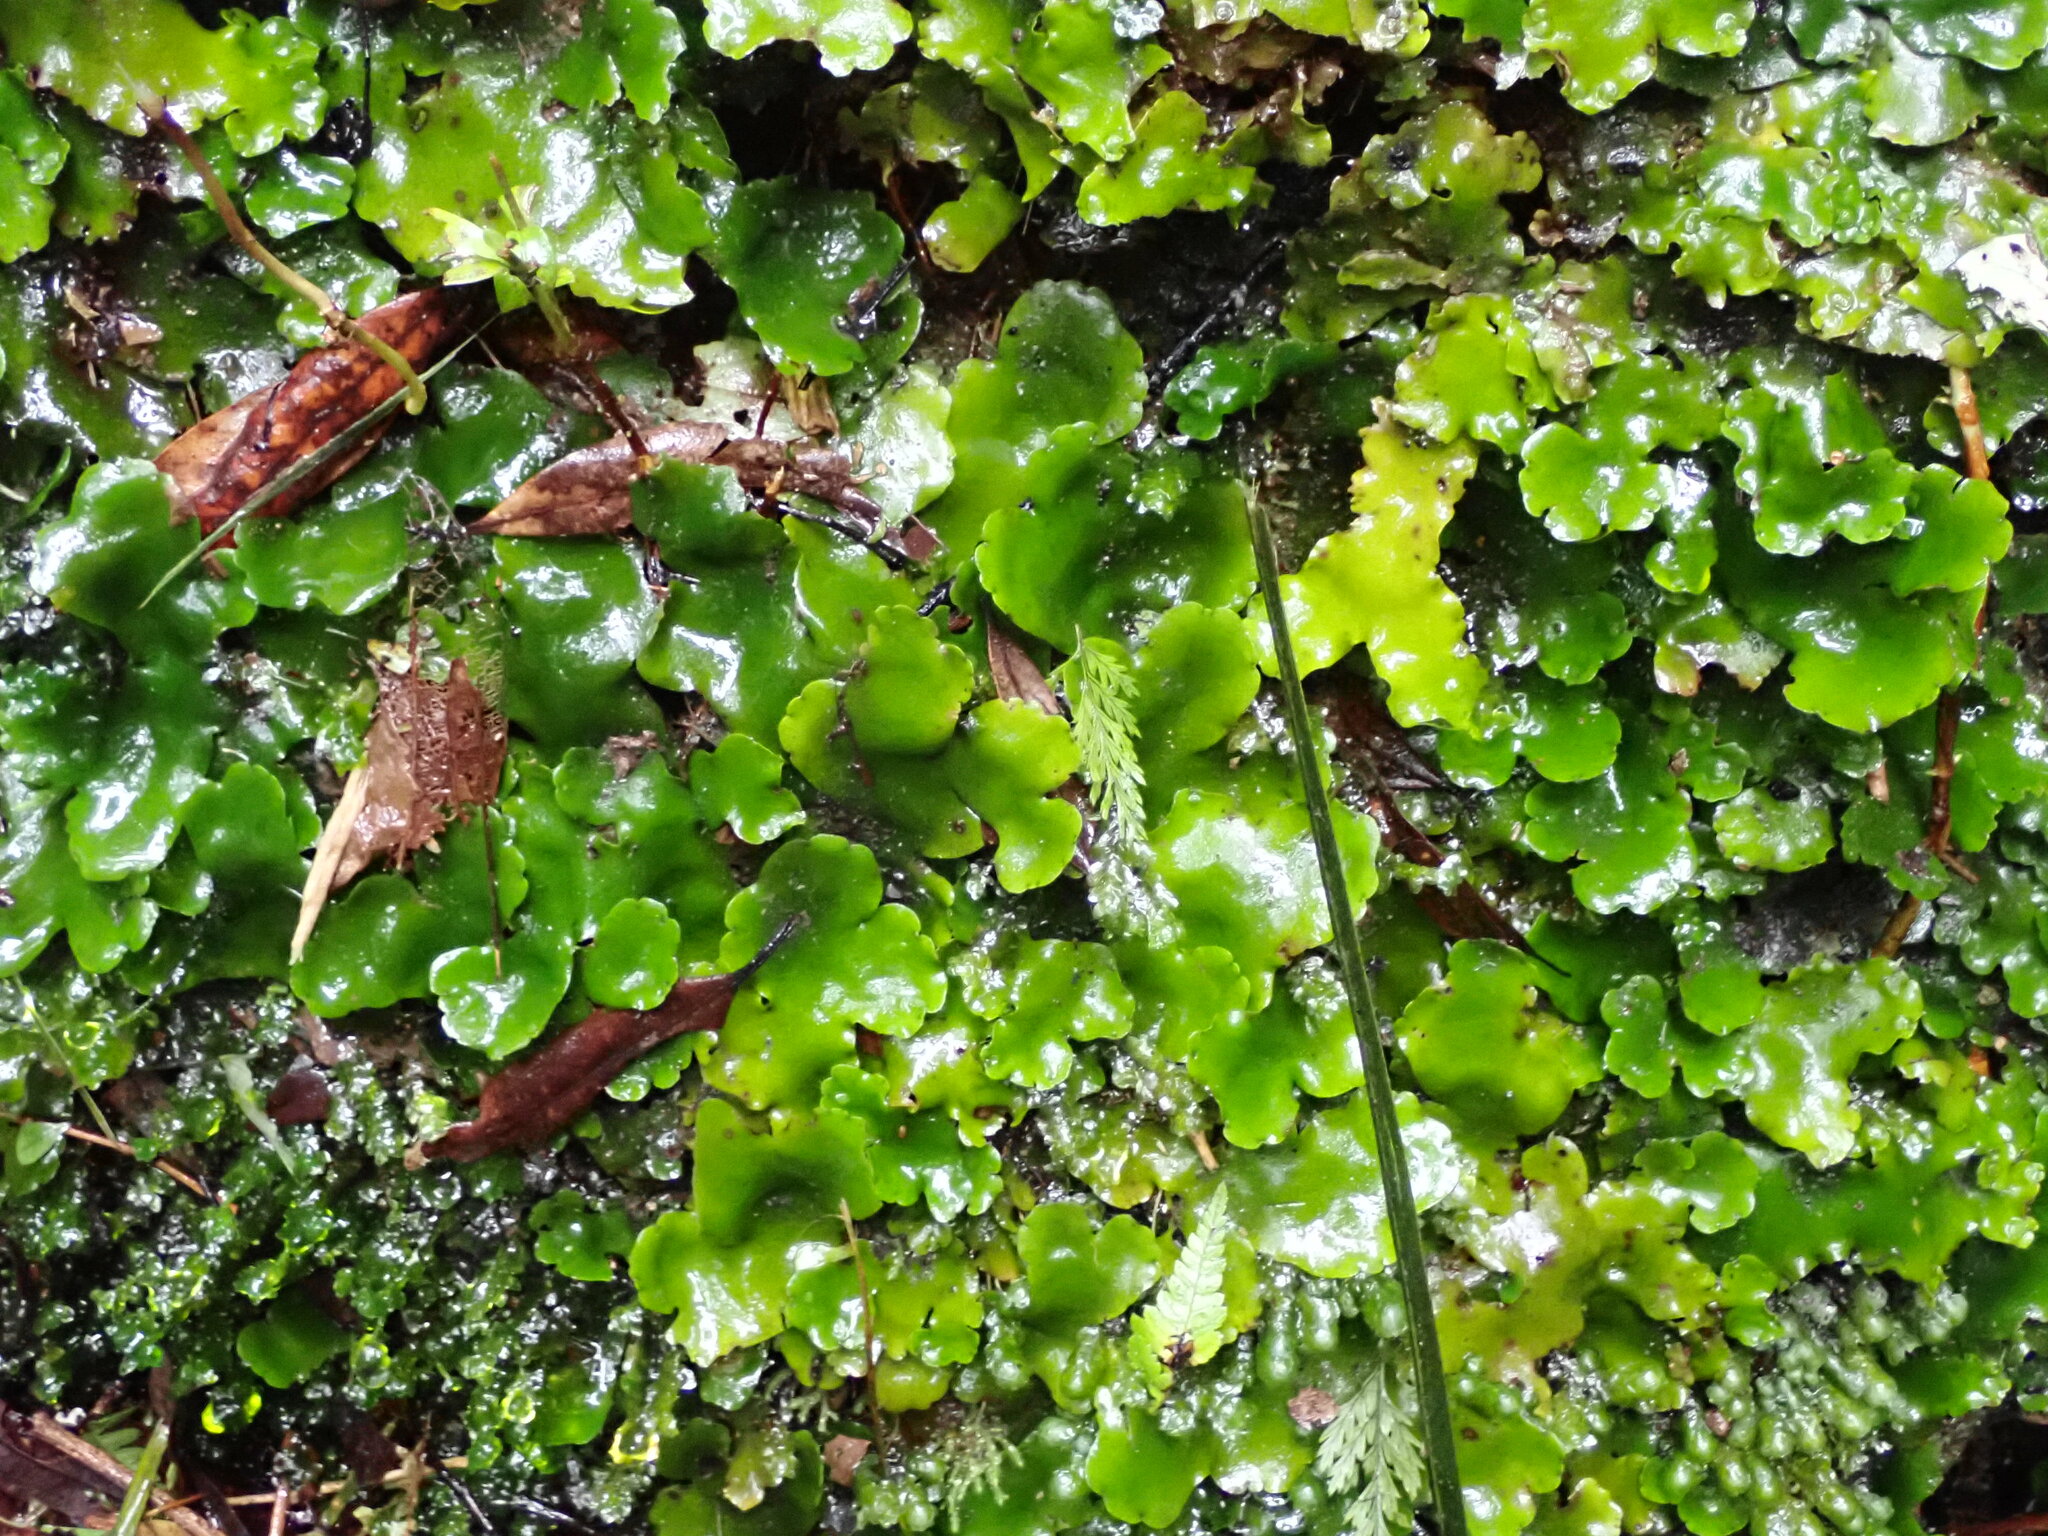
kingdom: Plantae
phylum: Marchantiophyta
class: Marchantiopsida
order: Marchantiales
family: Monocleaceae
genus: Monoclea
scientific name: Monoclea forsteri
